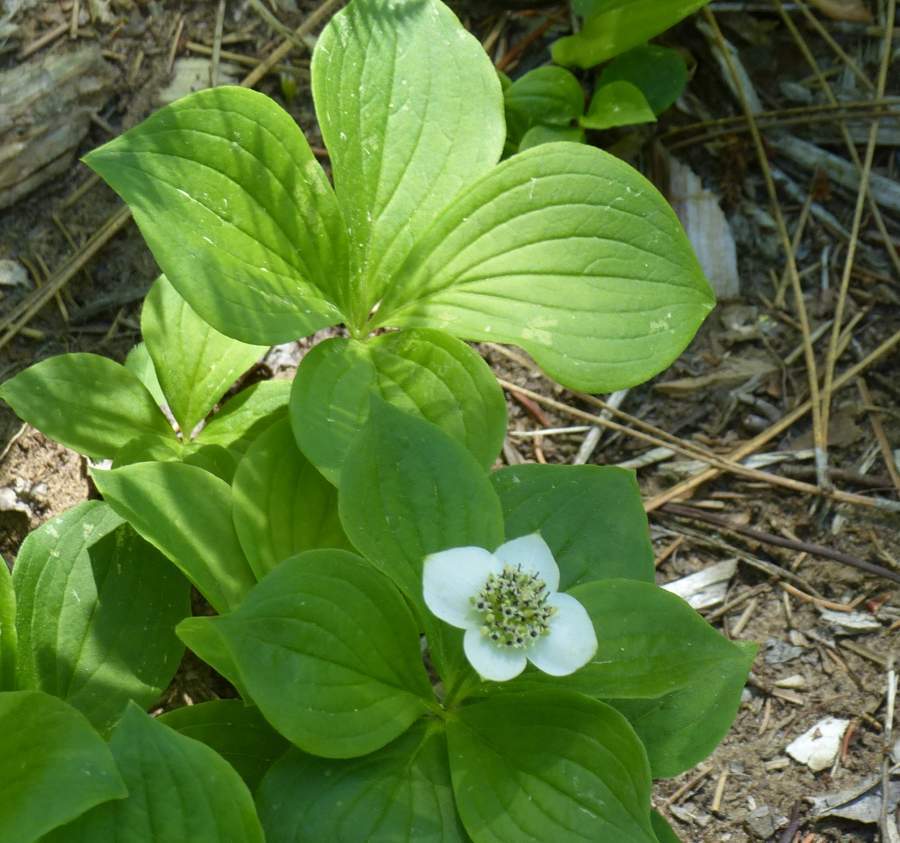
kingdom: Plantae
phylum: Tracheophyta
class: Magnoliopsida
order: Cornales
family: Cornaceae
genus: Cornus
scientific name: Cornus canadensis
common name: Creeping dogwood
